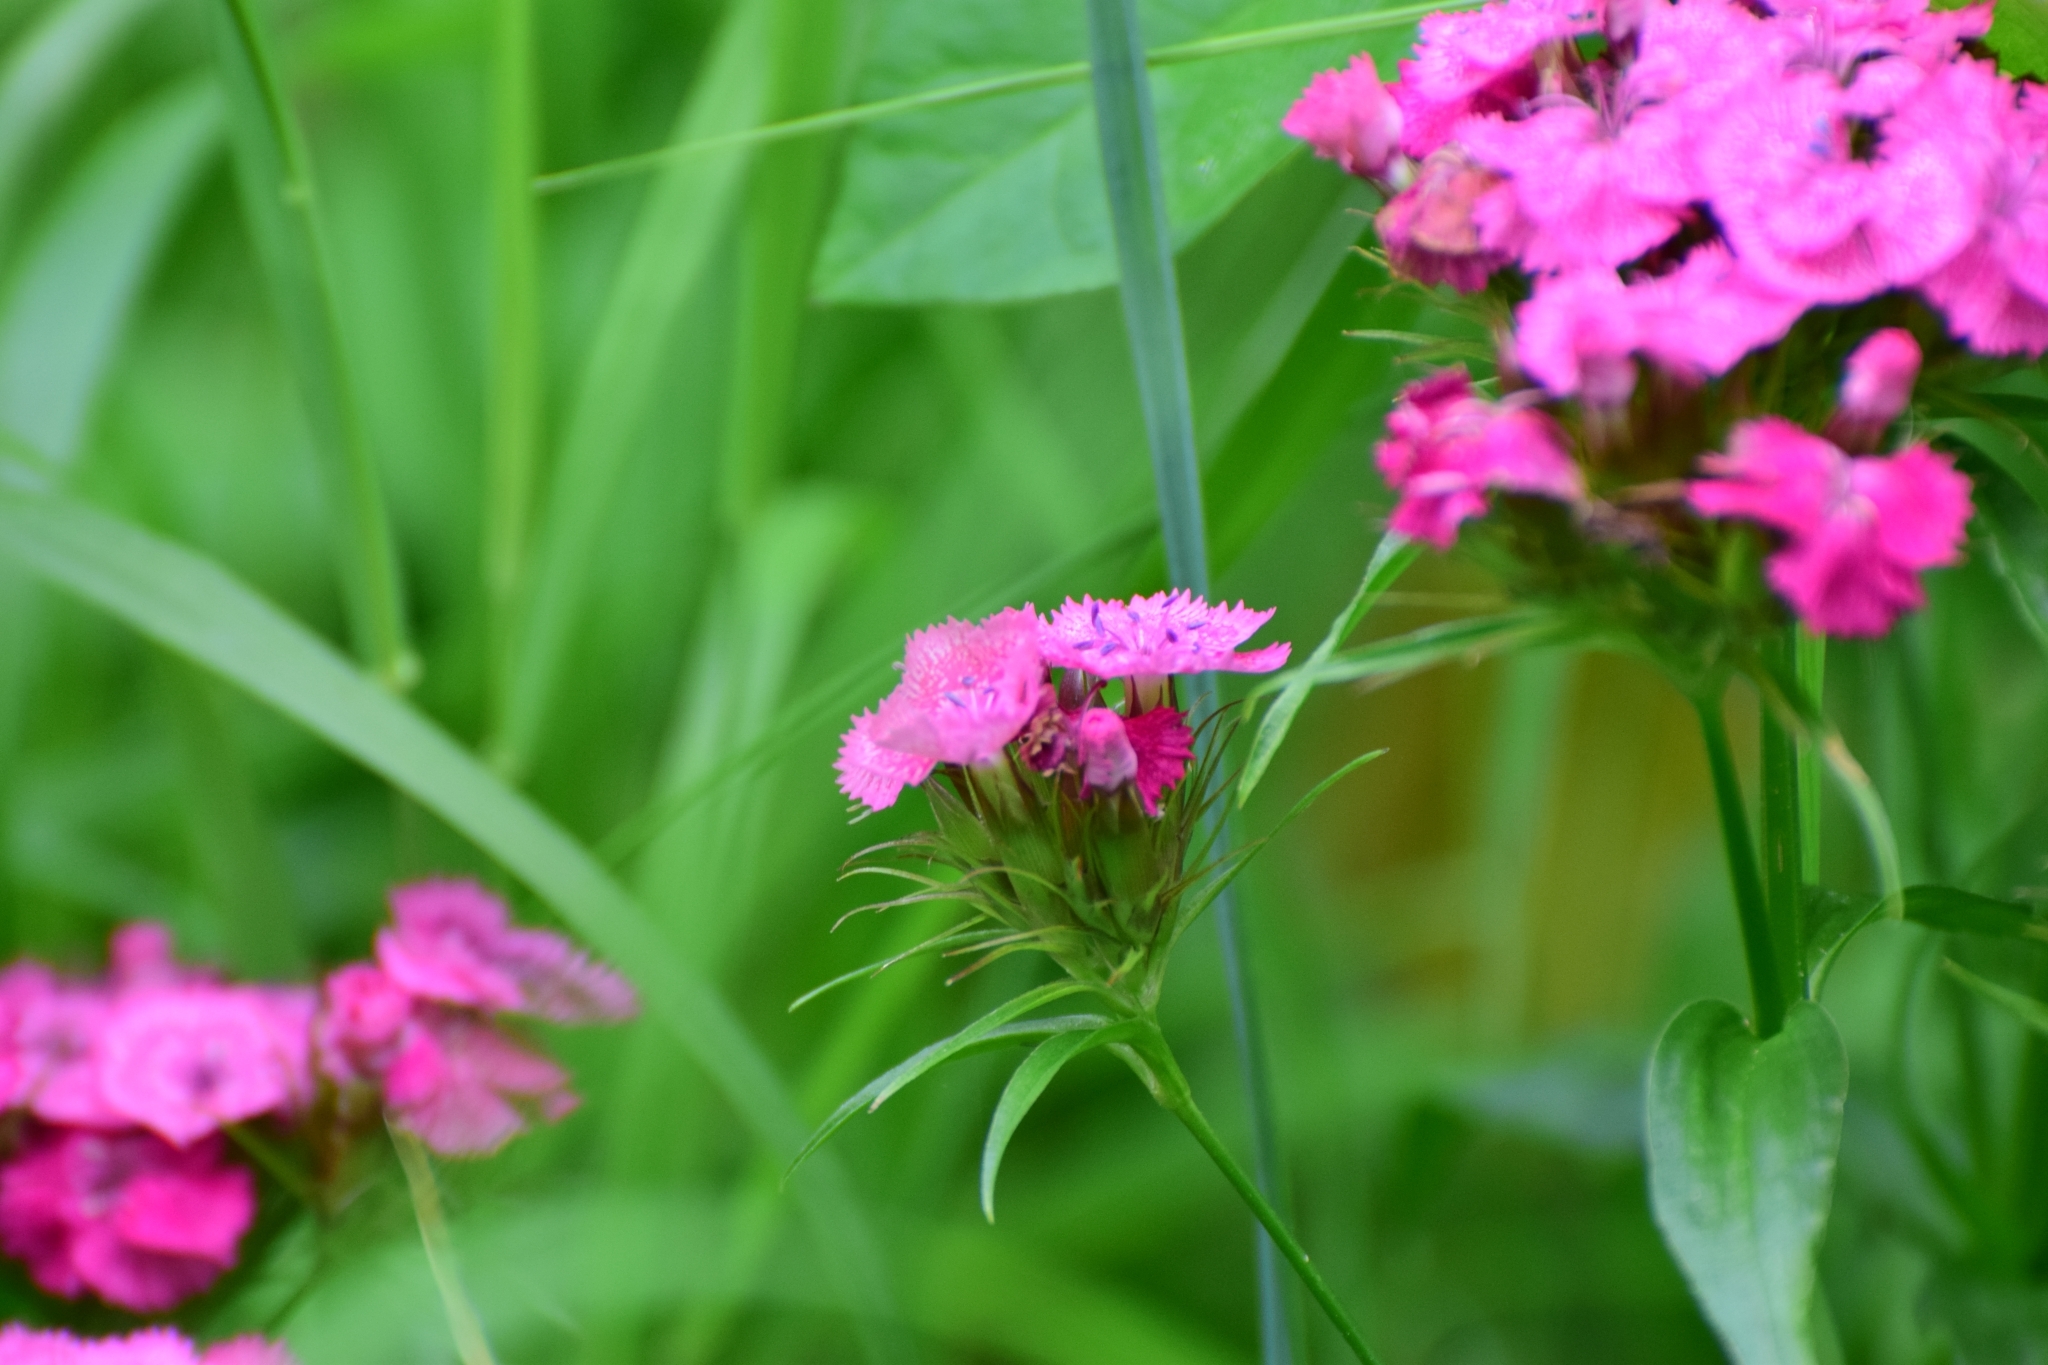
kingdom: Plantae
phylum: Tracheophyta
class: Magnoliopsida
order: Caryophyllales
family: Caryophyllaceae
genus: Dianthus
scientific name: Dianthus barbatus
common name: Sweet-william
